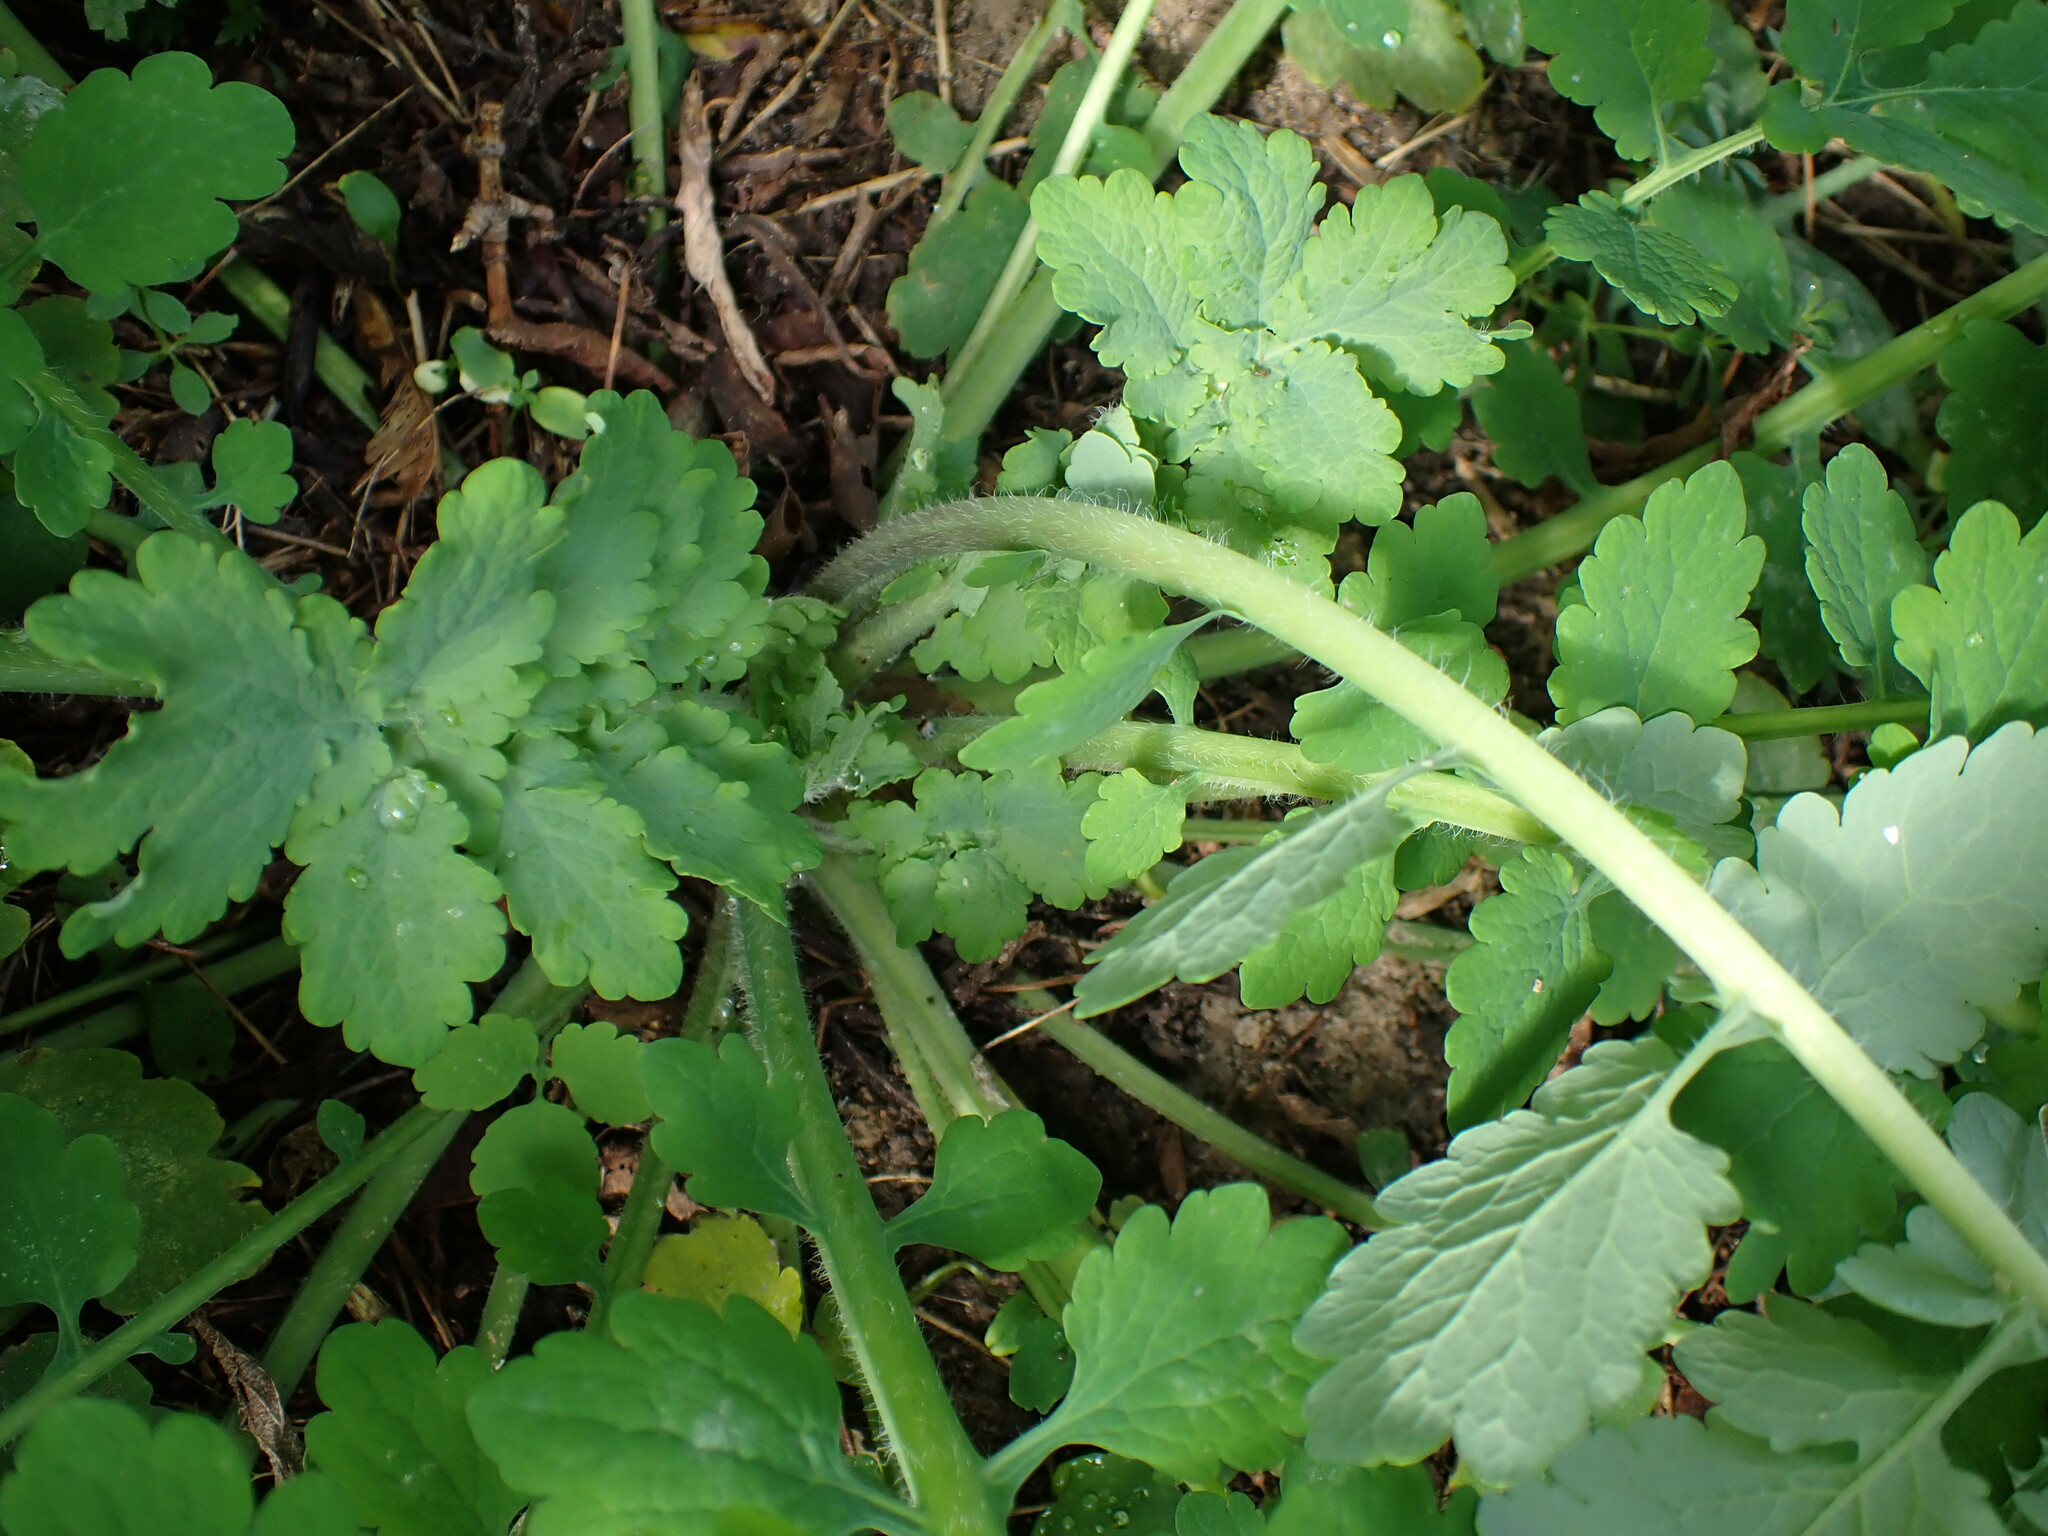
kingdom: Plantae
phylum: Tracheophyta
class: Magnoliopsida
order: Ranunculales
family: Papaveraceae
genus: Chelidonium
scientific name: Chelidonium majus
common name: Greater celandine
